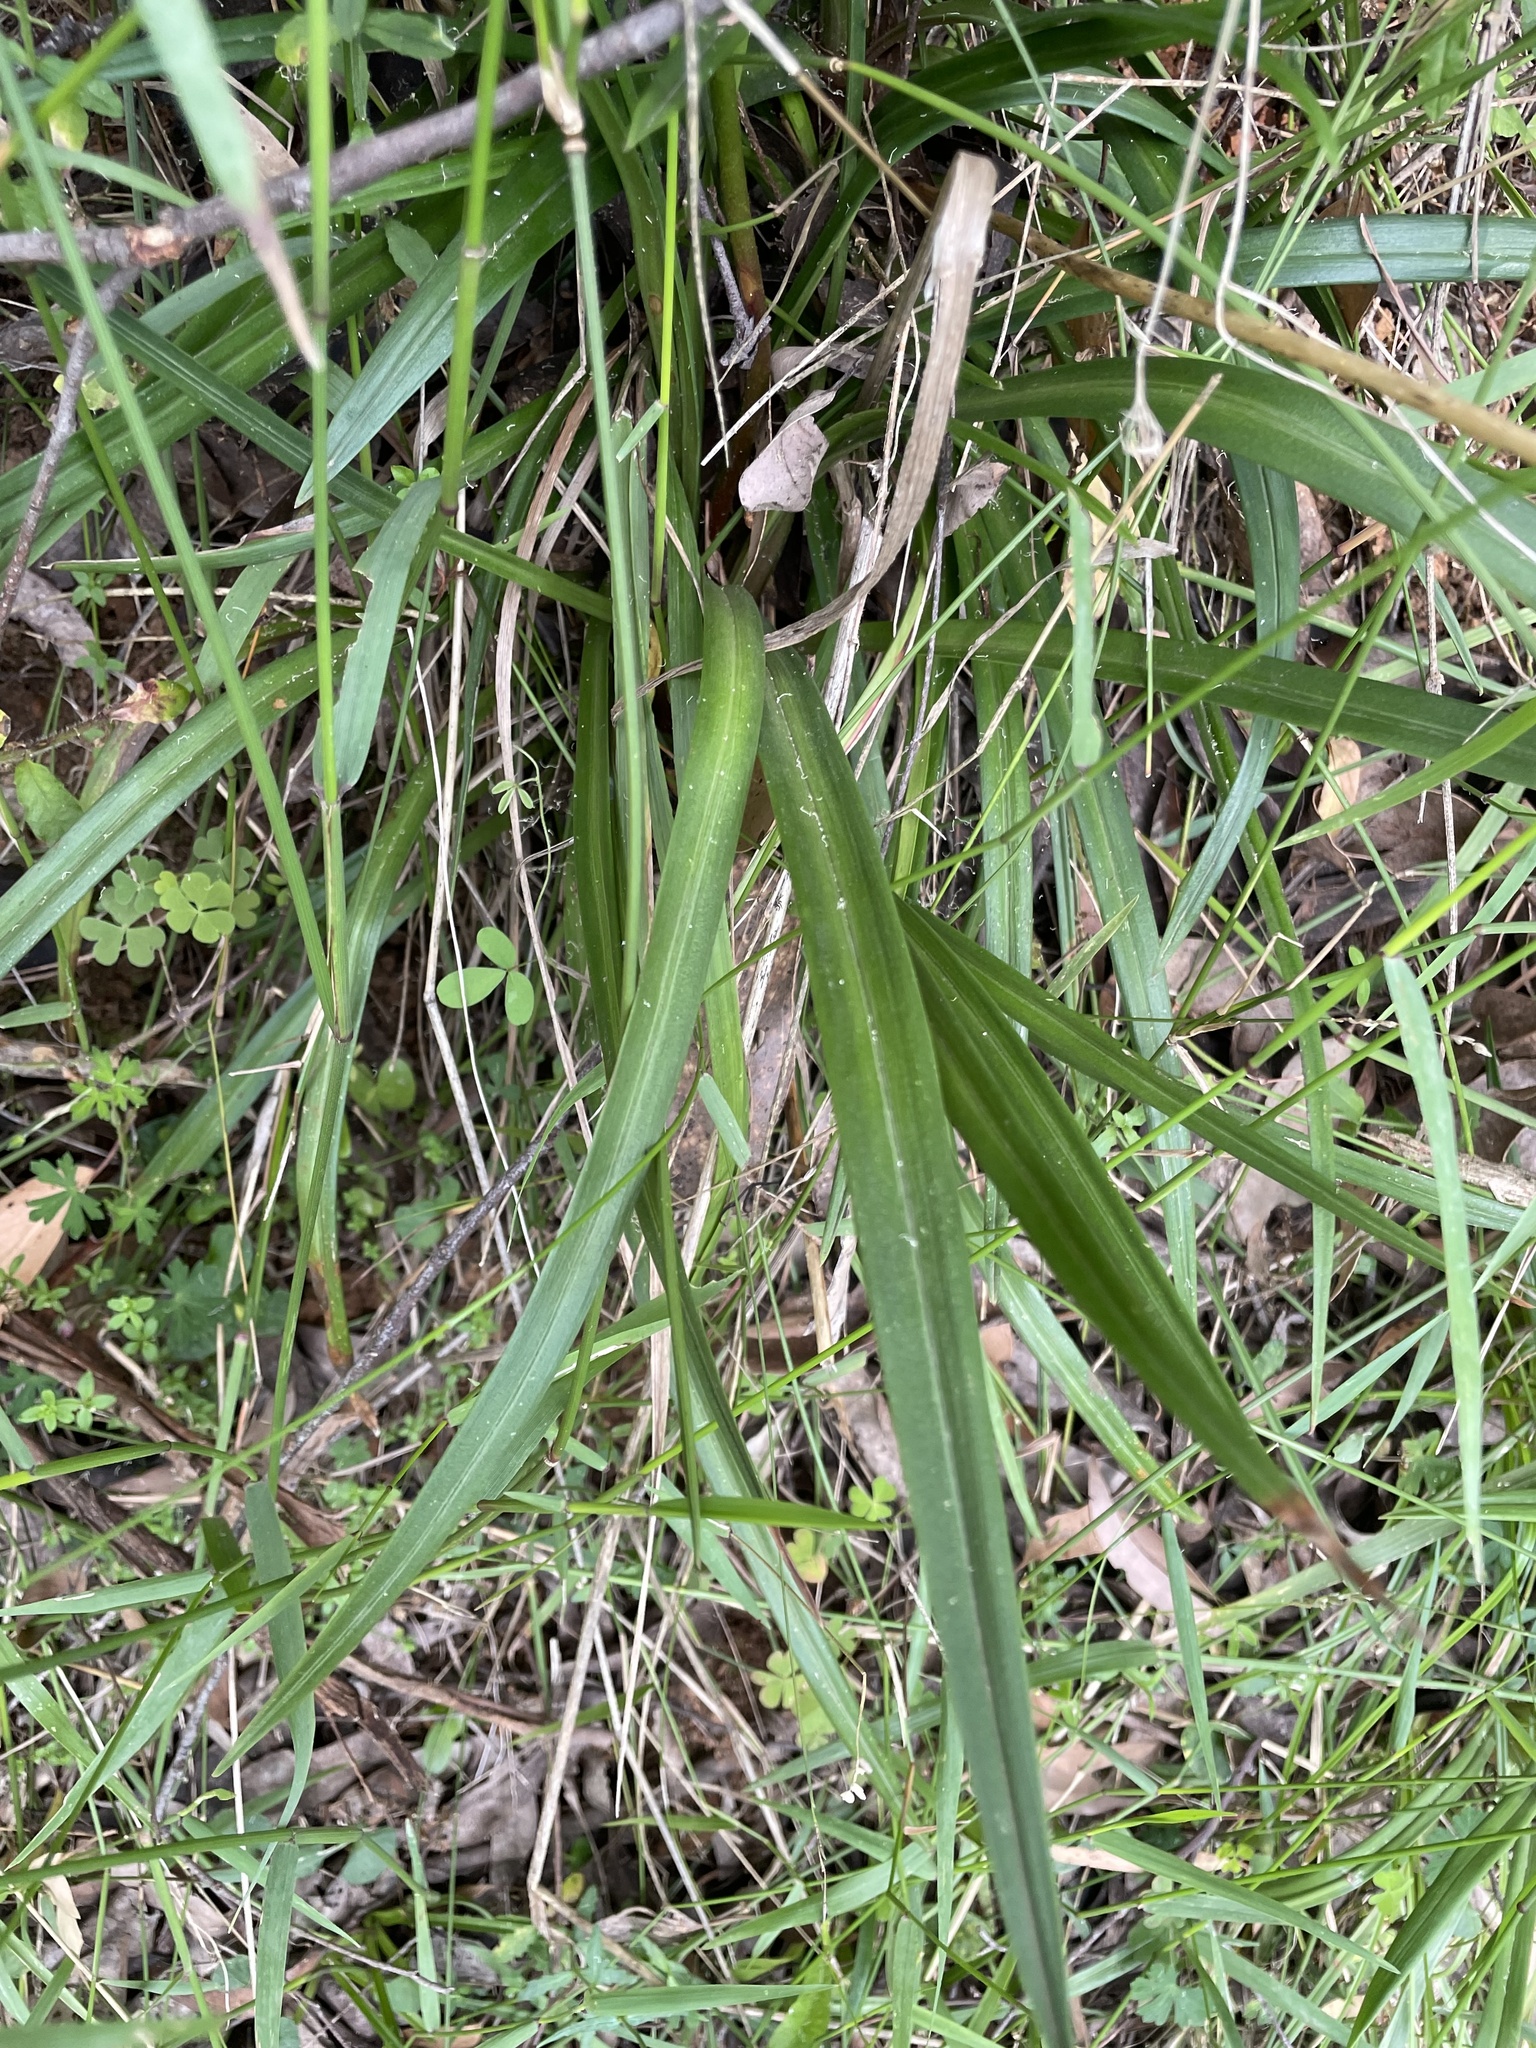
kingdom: Plantae
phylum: Tracheophyta
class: Magnoliopsida
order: Asterales
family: Stylidiaceae
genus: Stylidium
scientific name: Stylidium armeria
